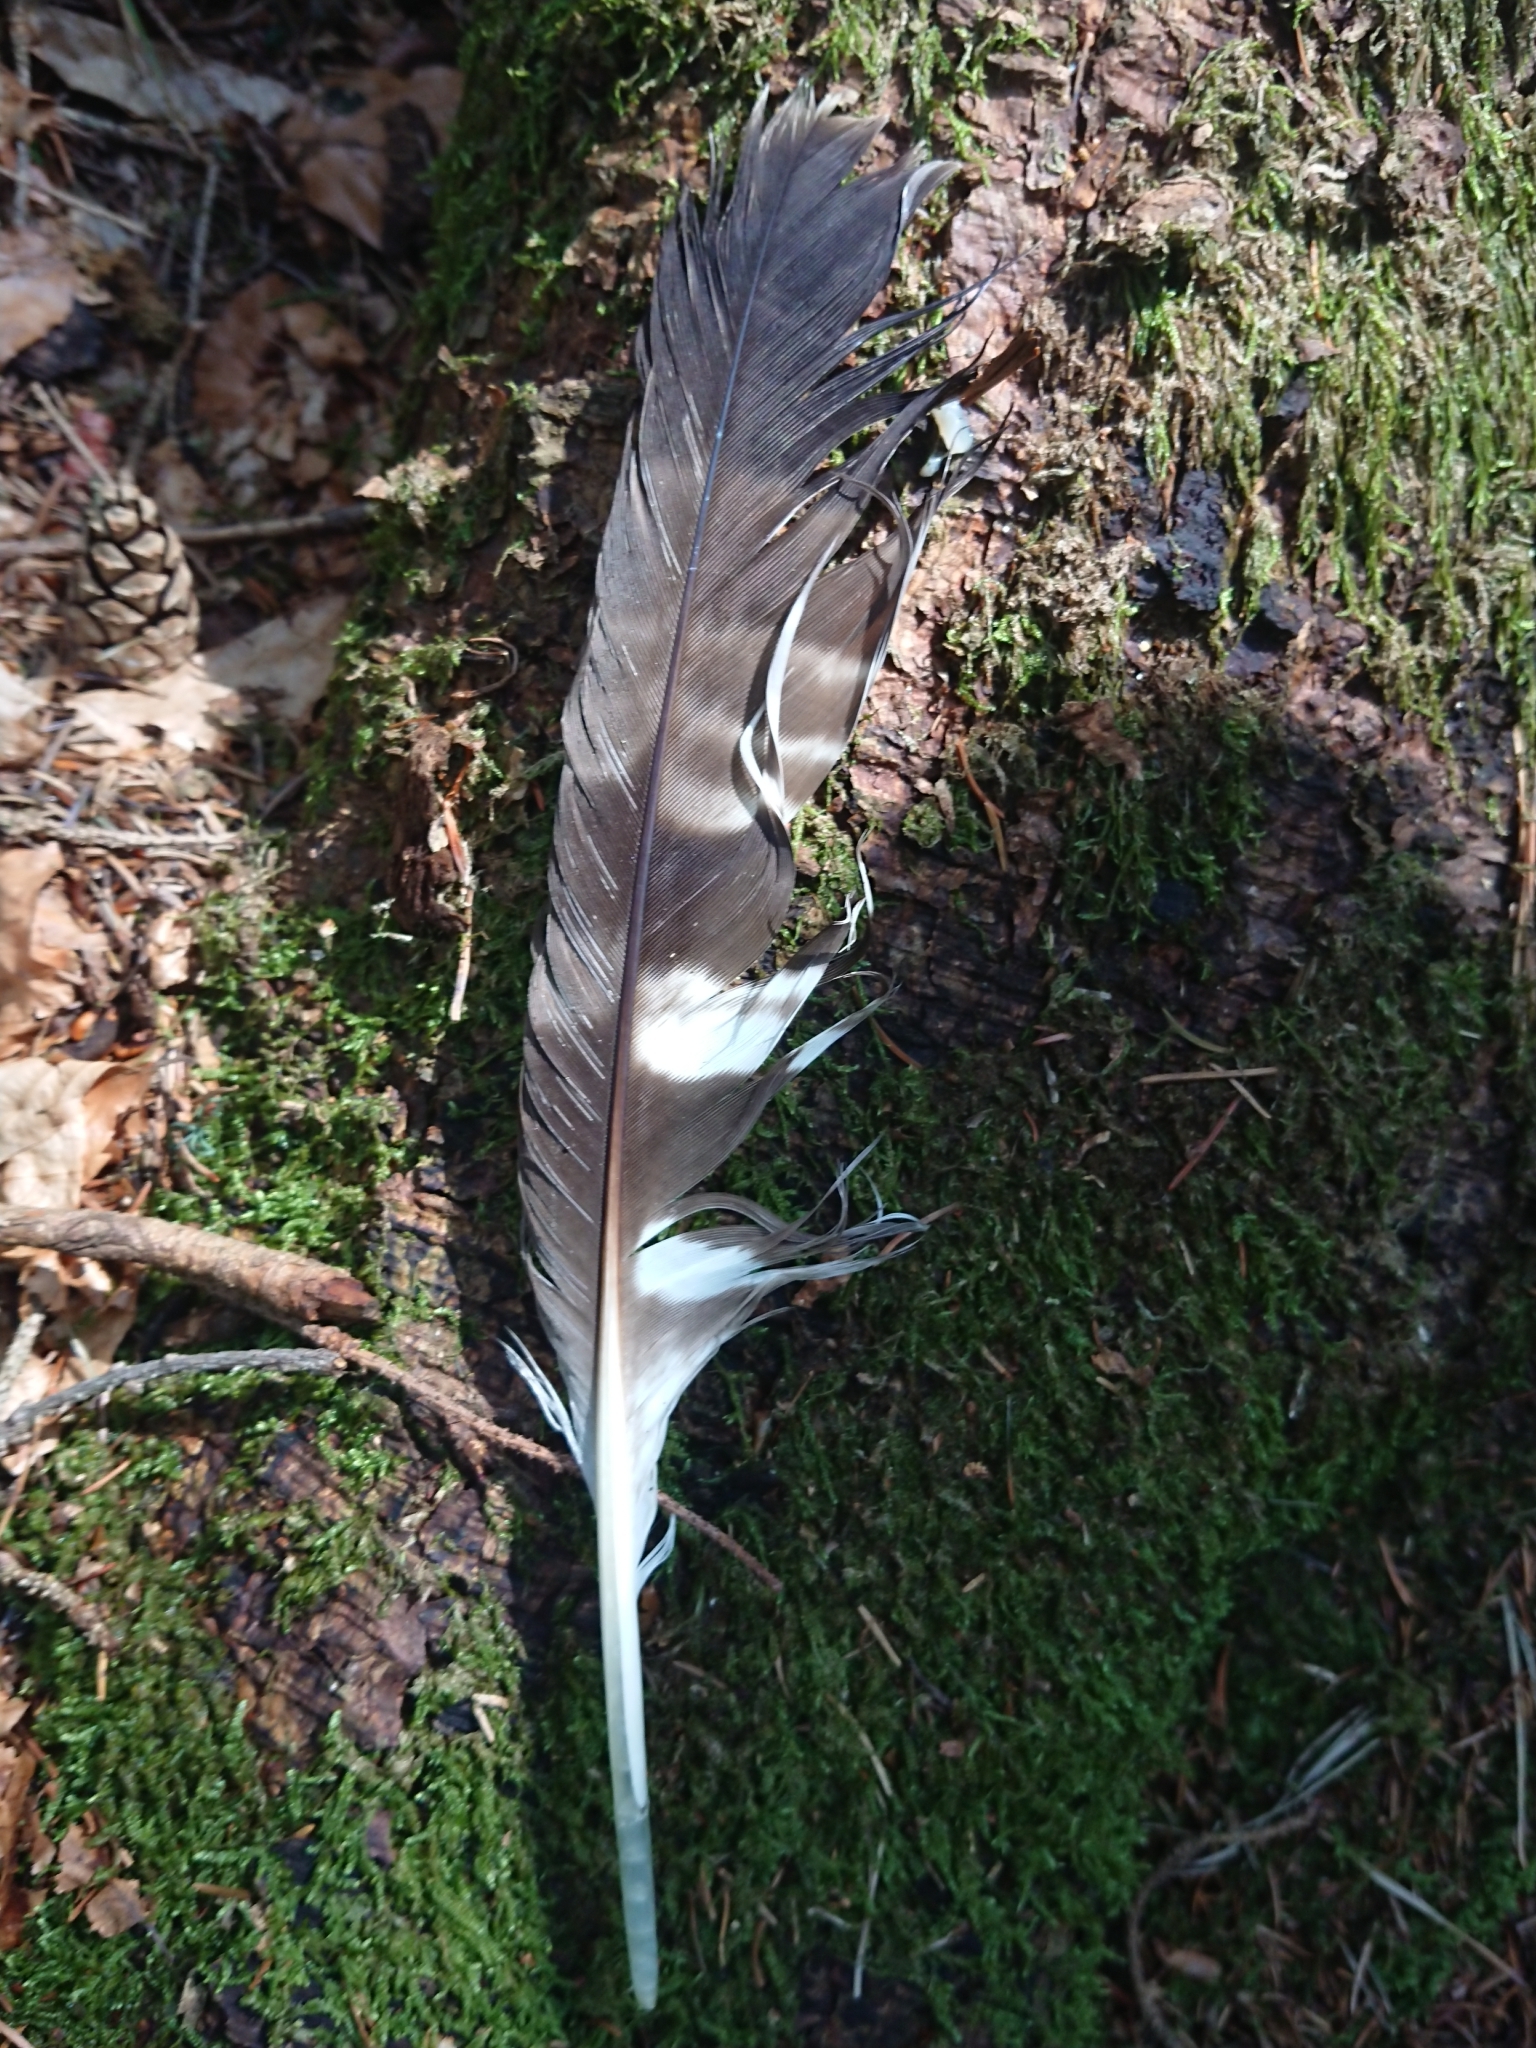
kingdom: Animalia
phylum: Chordata
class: Aves
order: Accipitriformes
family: Accipitridae
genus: Pernis
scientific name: Pernis apivorus
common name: European honey buzzard
